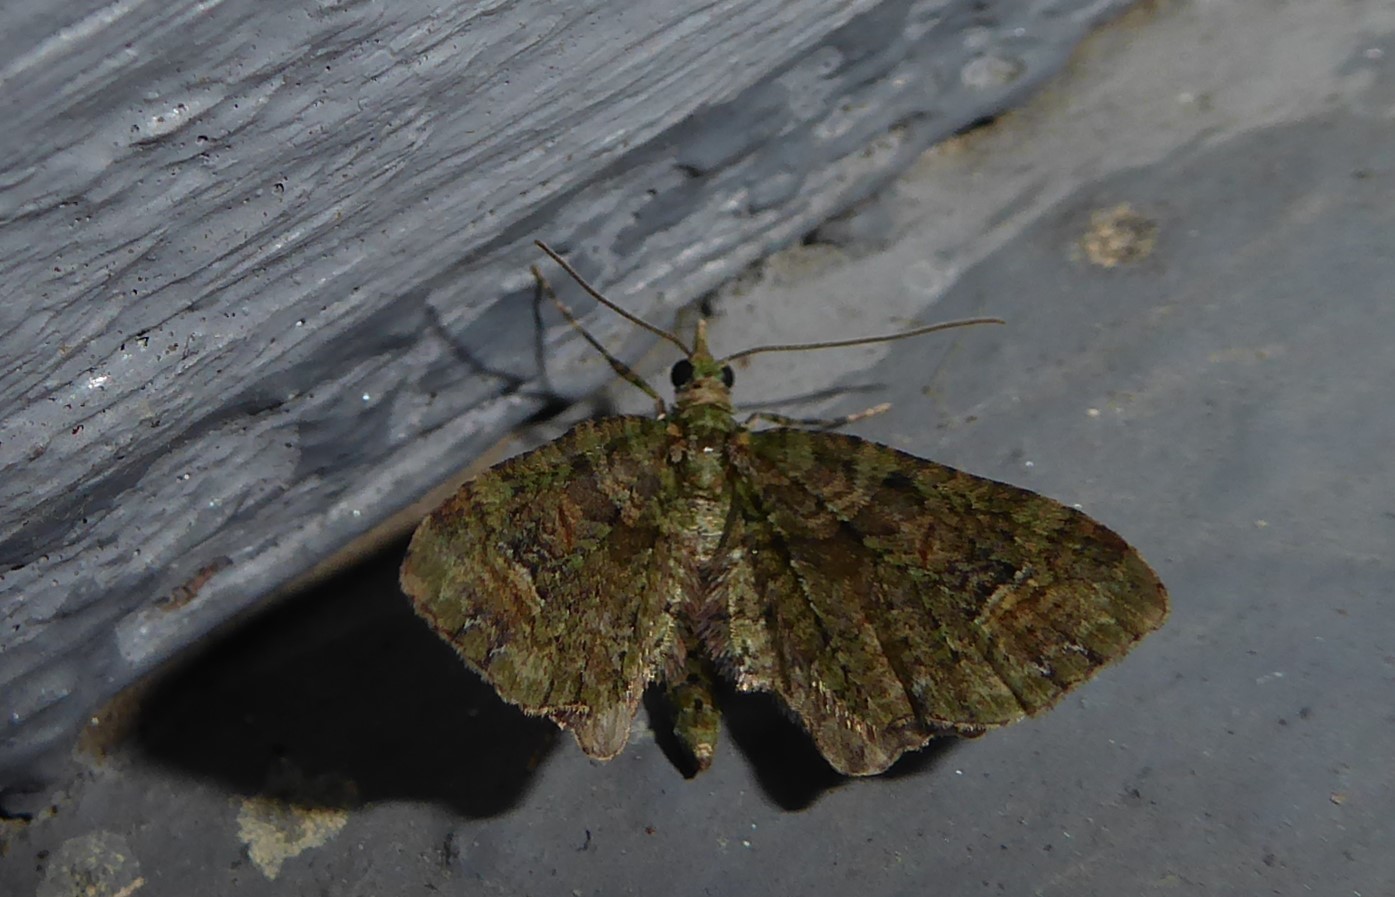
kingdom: Animalia
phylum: Arthropoda
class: Insecta
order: Lepidoptera
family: Geometridae
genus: Idaea
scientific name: Idaea mutanda
